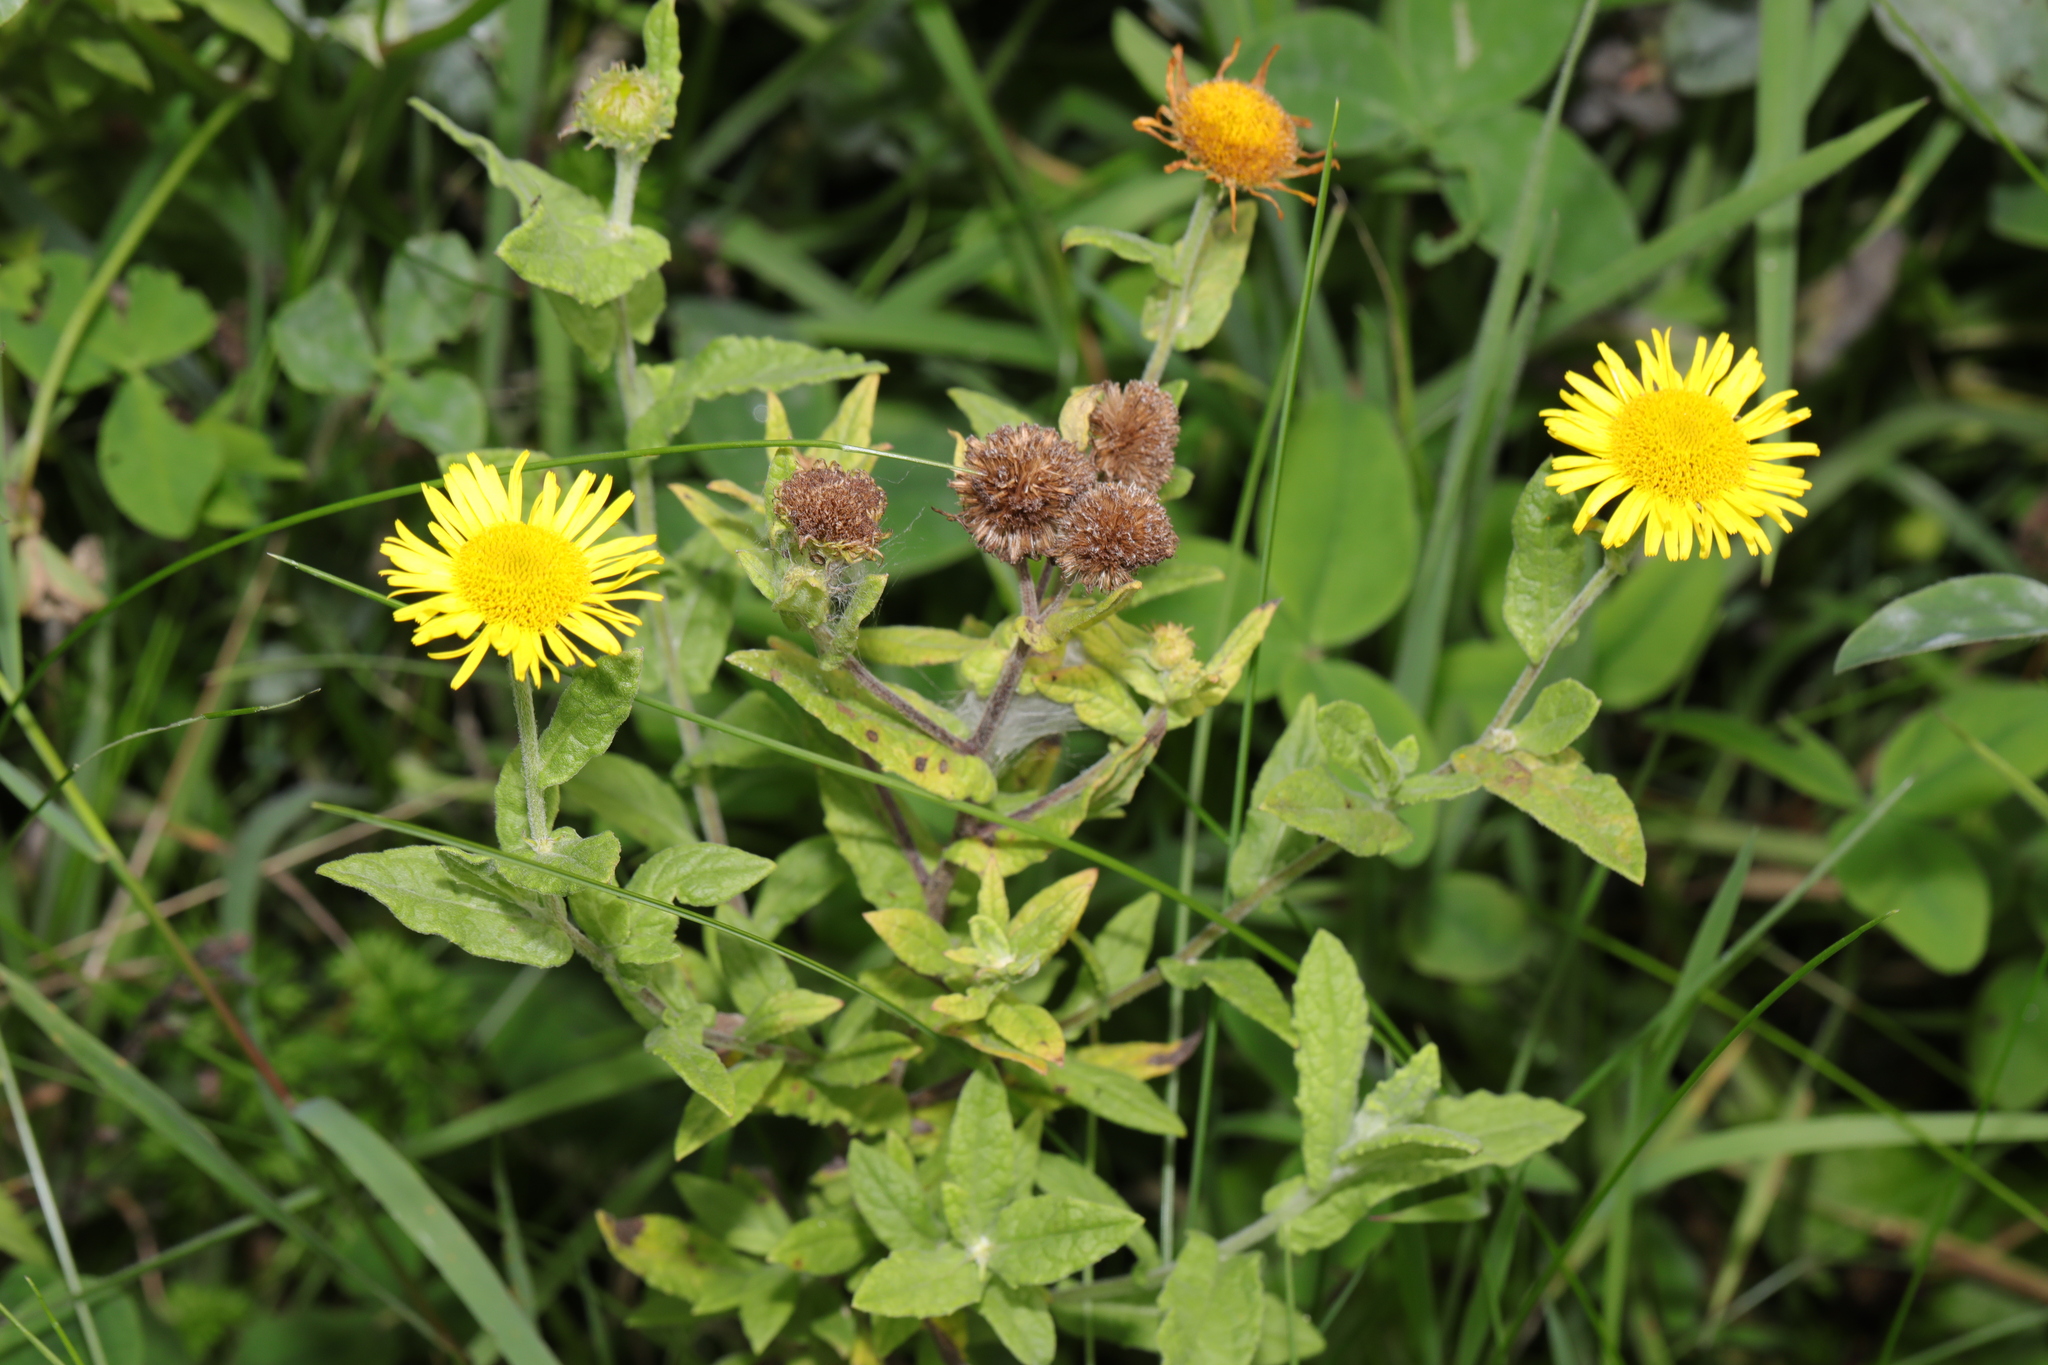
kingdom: Plantae
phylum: Tracheophyta
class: Magnoliopsida
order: Asterales
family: Asteraceae
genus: Pulicaria
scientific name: Pulicaria dysenterica
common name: Common fleabane
